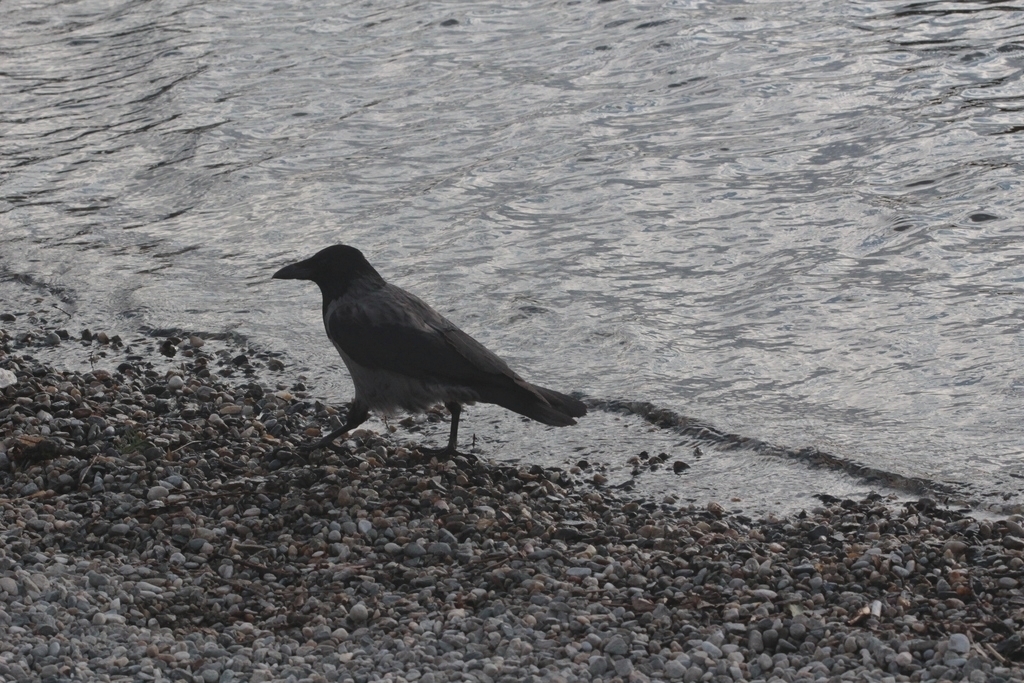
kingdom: Animalia
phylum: Chordata
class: Aves
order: Passeriformes
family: Corvidae
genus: Corvus
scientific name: Corvus cornix
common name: Hooded crow
